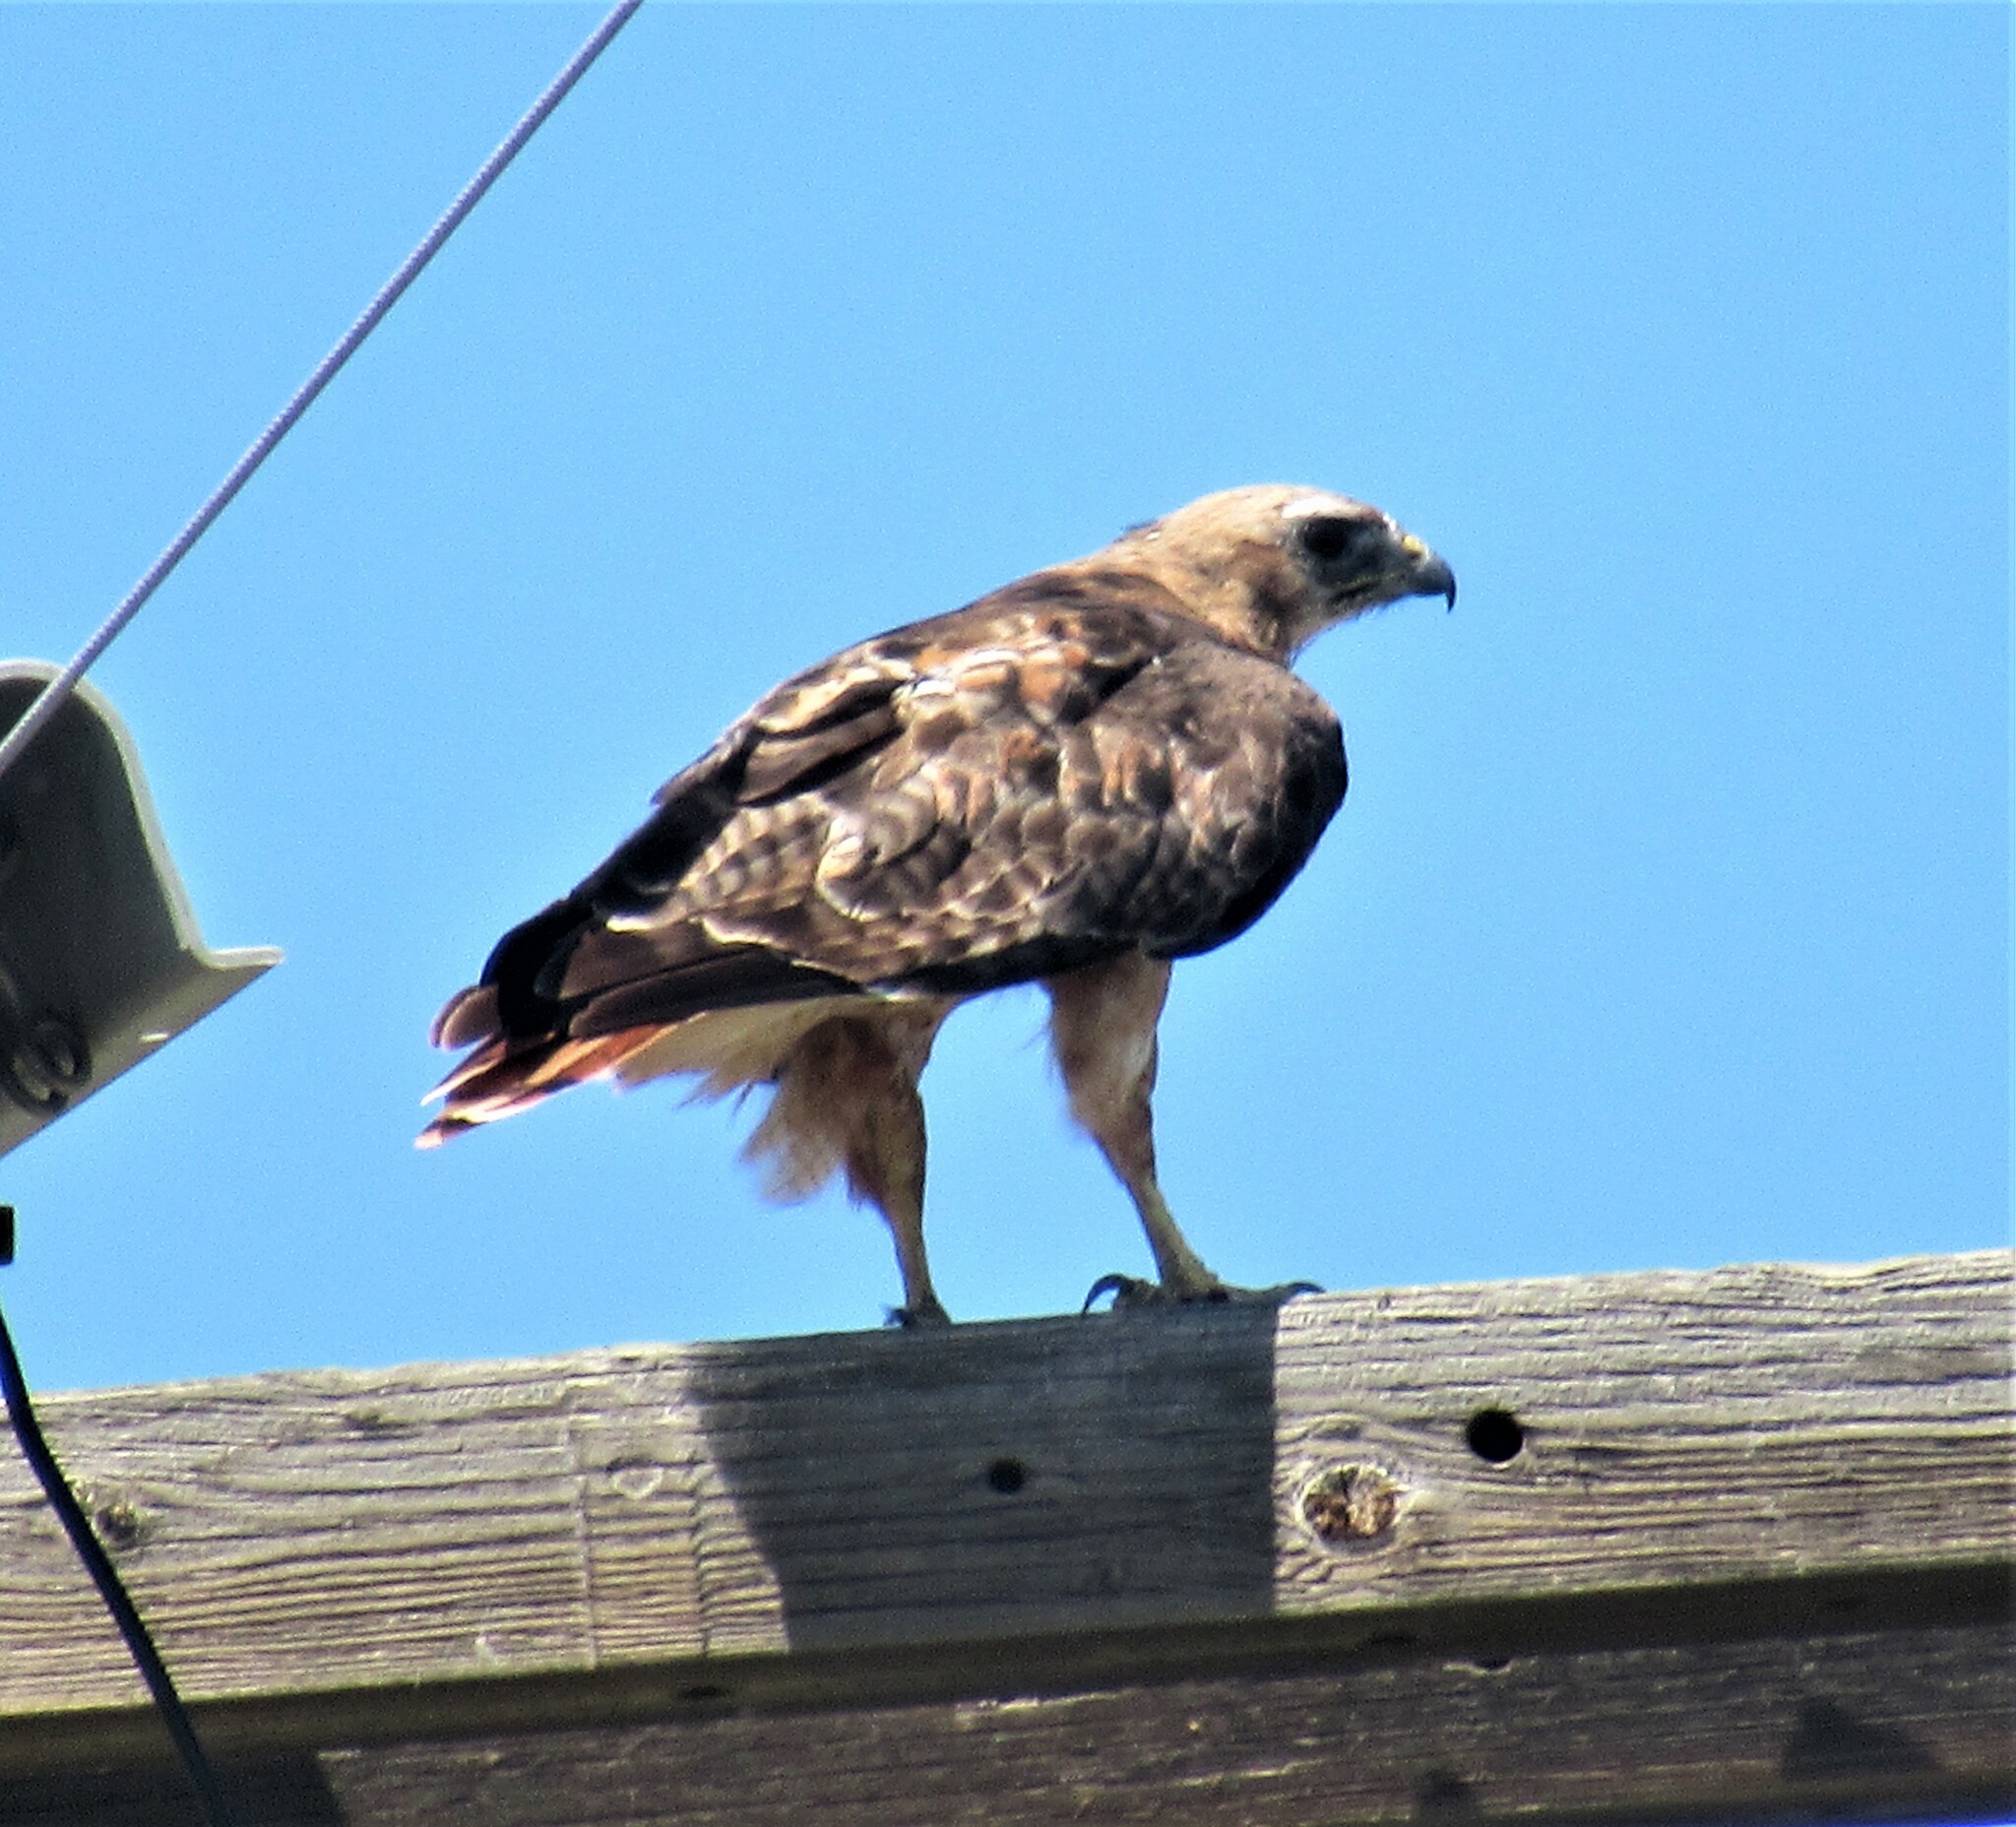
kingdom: Animalia
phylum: Chordata
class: Aves
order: Accipitriformes
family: Accipitridae
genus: Buteo
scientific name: Buteo jamaicensis
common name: Red-tailed hawk
